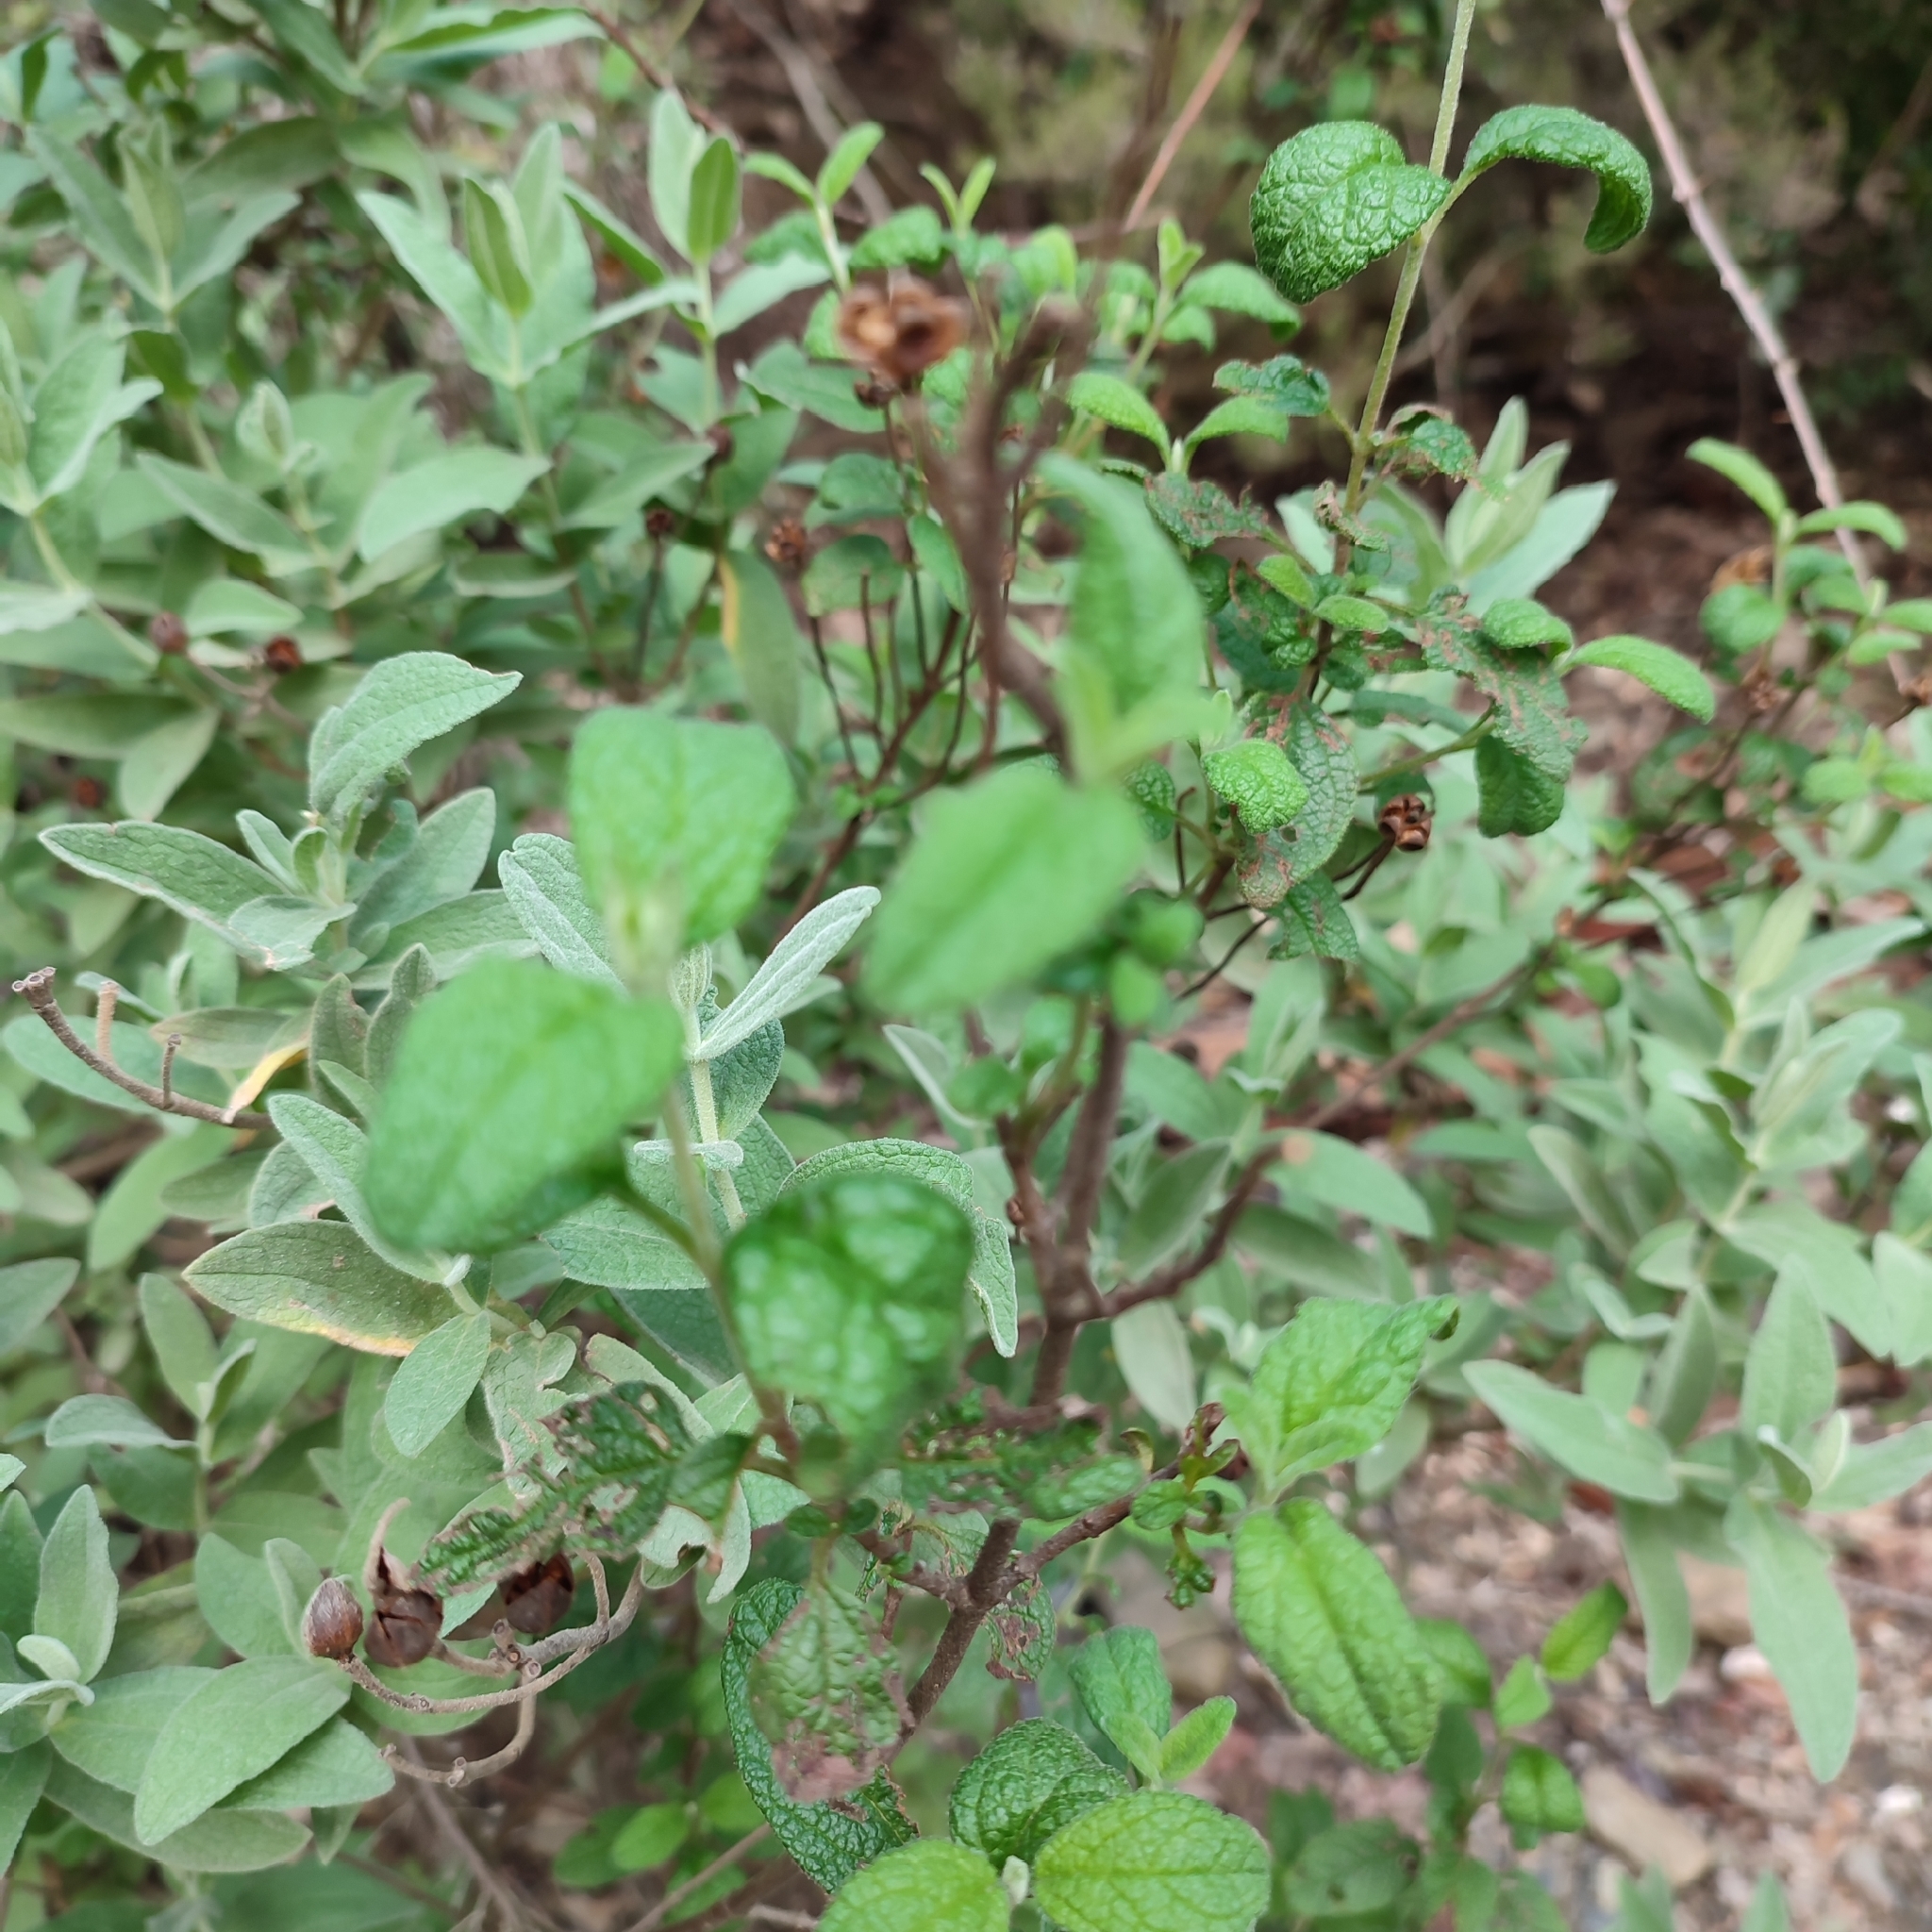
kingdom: Plantae
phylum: Tracheophyta
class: Magnoliopsida
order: Malvales
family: Cistaceae
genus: Cistus
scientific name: Cistus salviifolius
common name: Salvia cistus
